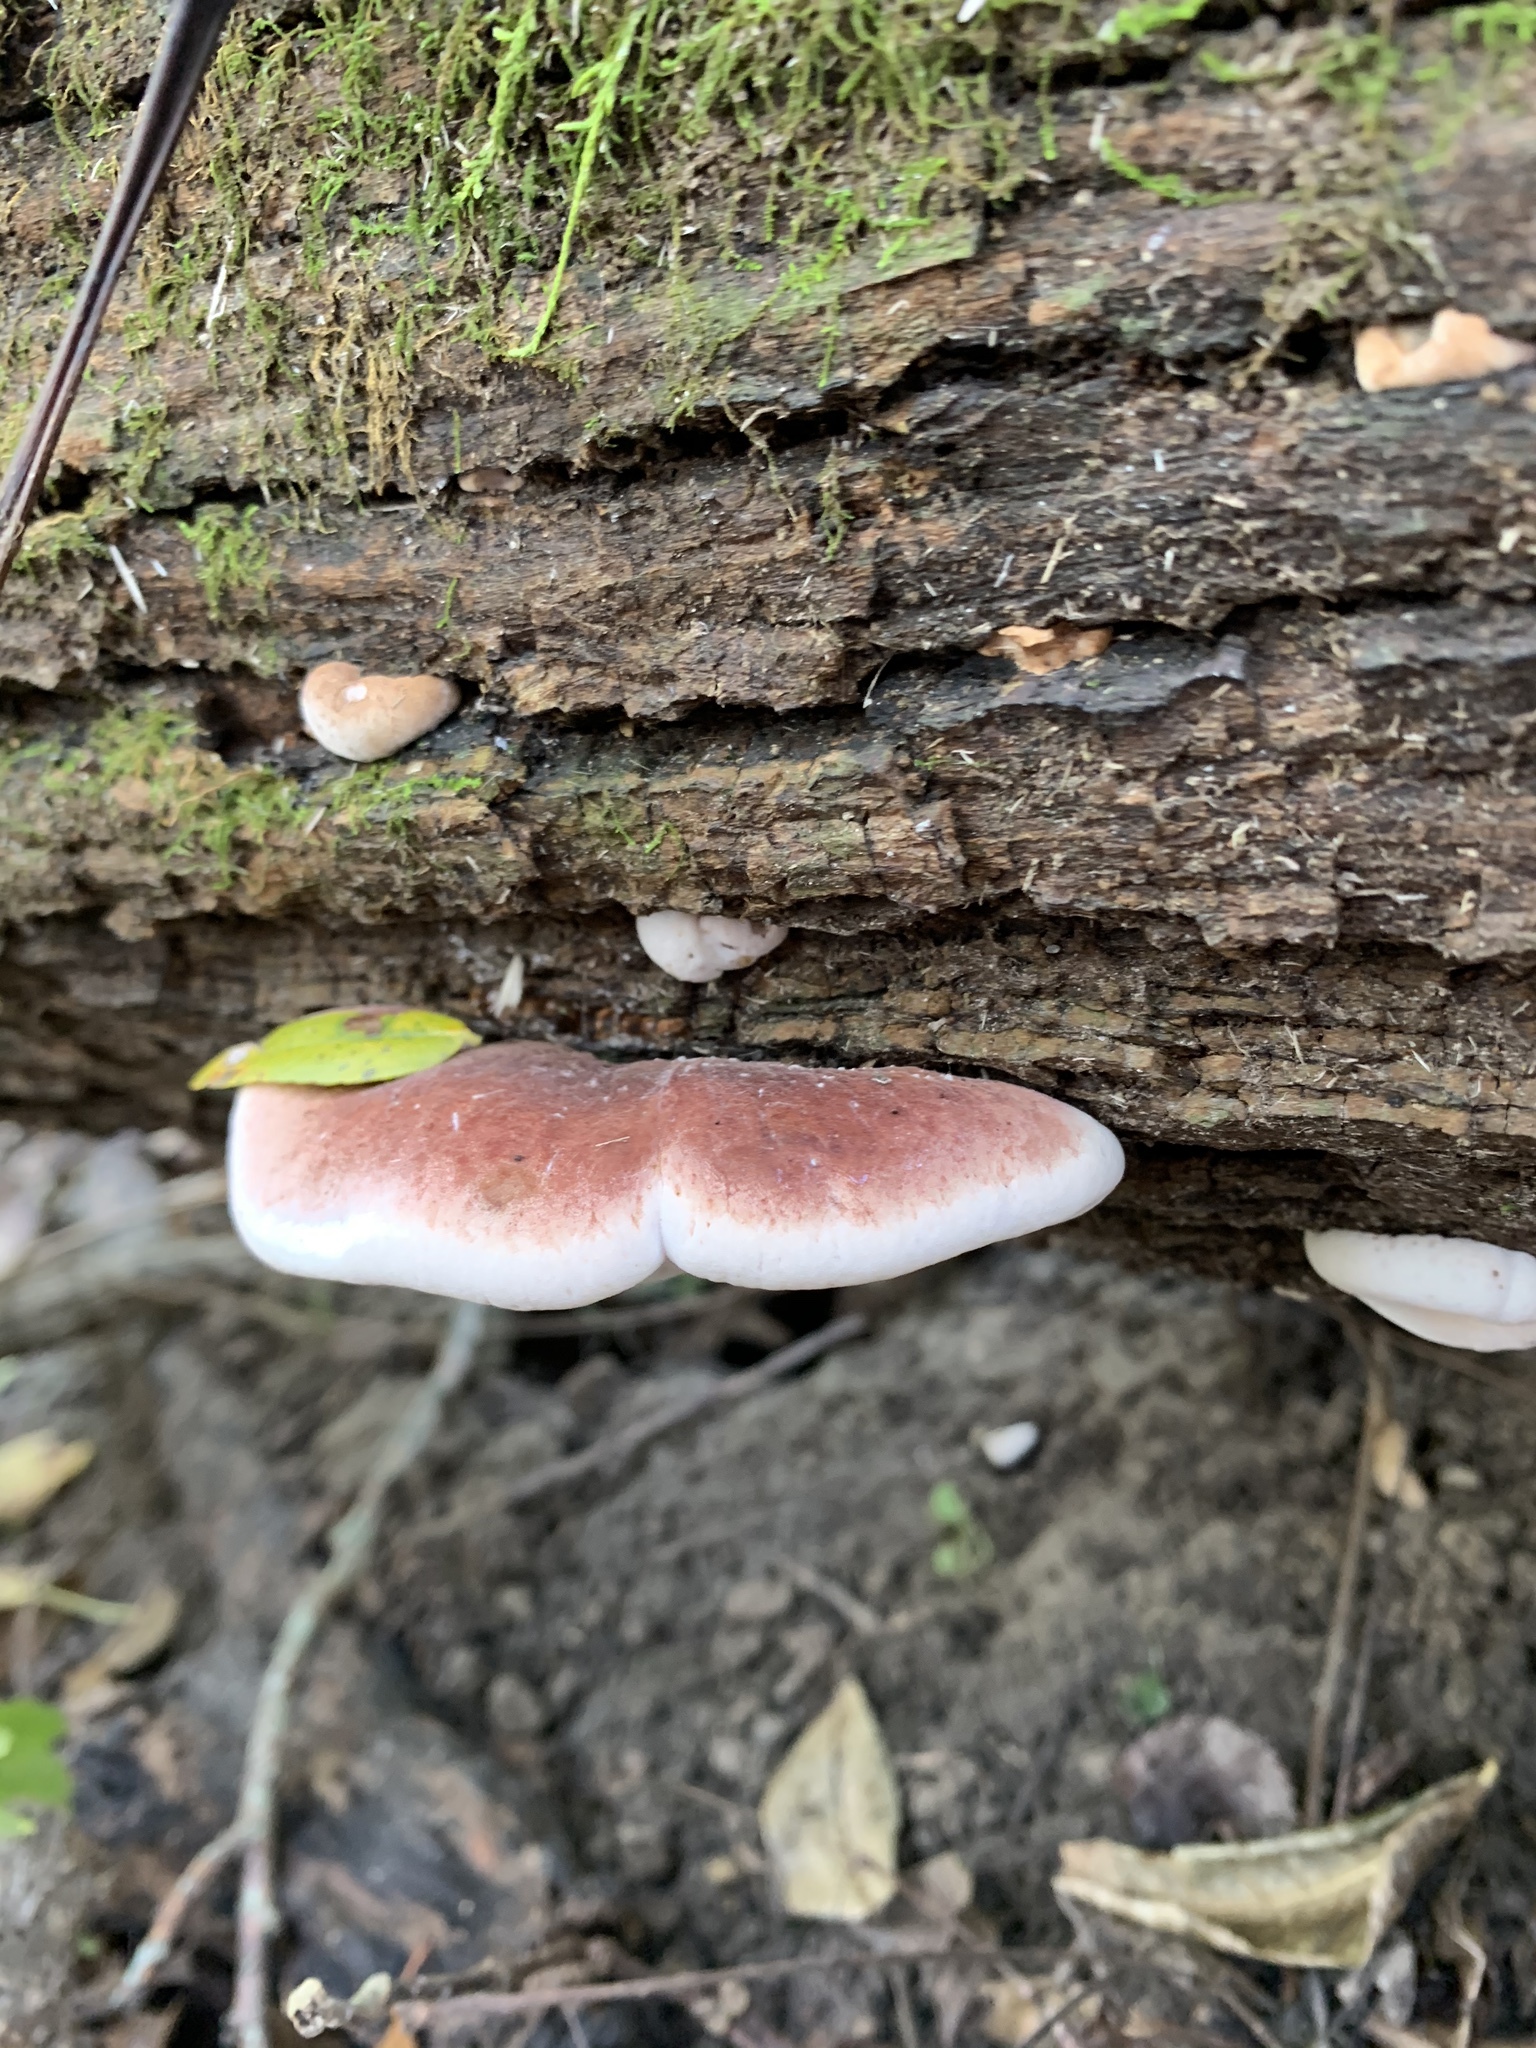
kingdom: Fungi
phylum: Basidiomycota
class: Agaricomycetes
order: Polyporales
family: Ischnodermataceae
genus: Ischnoderma
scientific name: Ischnoderma resinosum
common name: Resinous polypore
